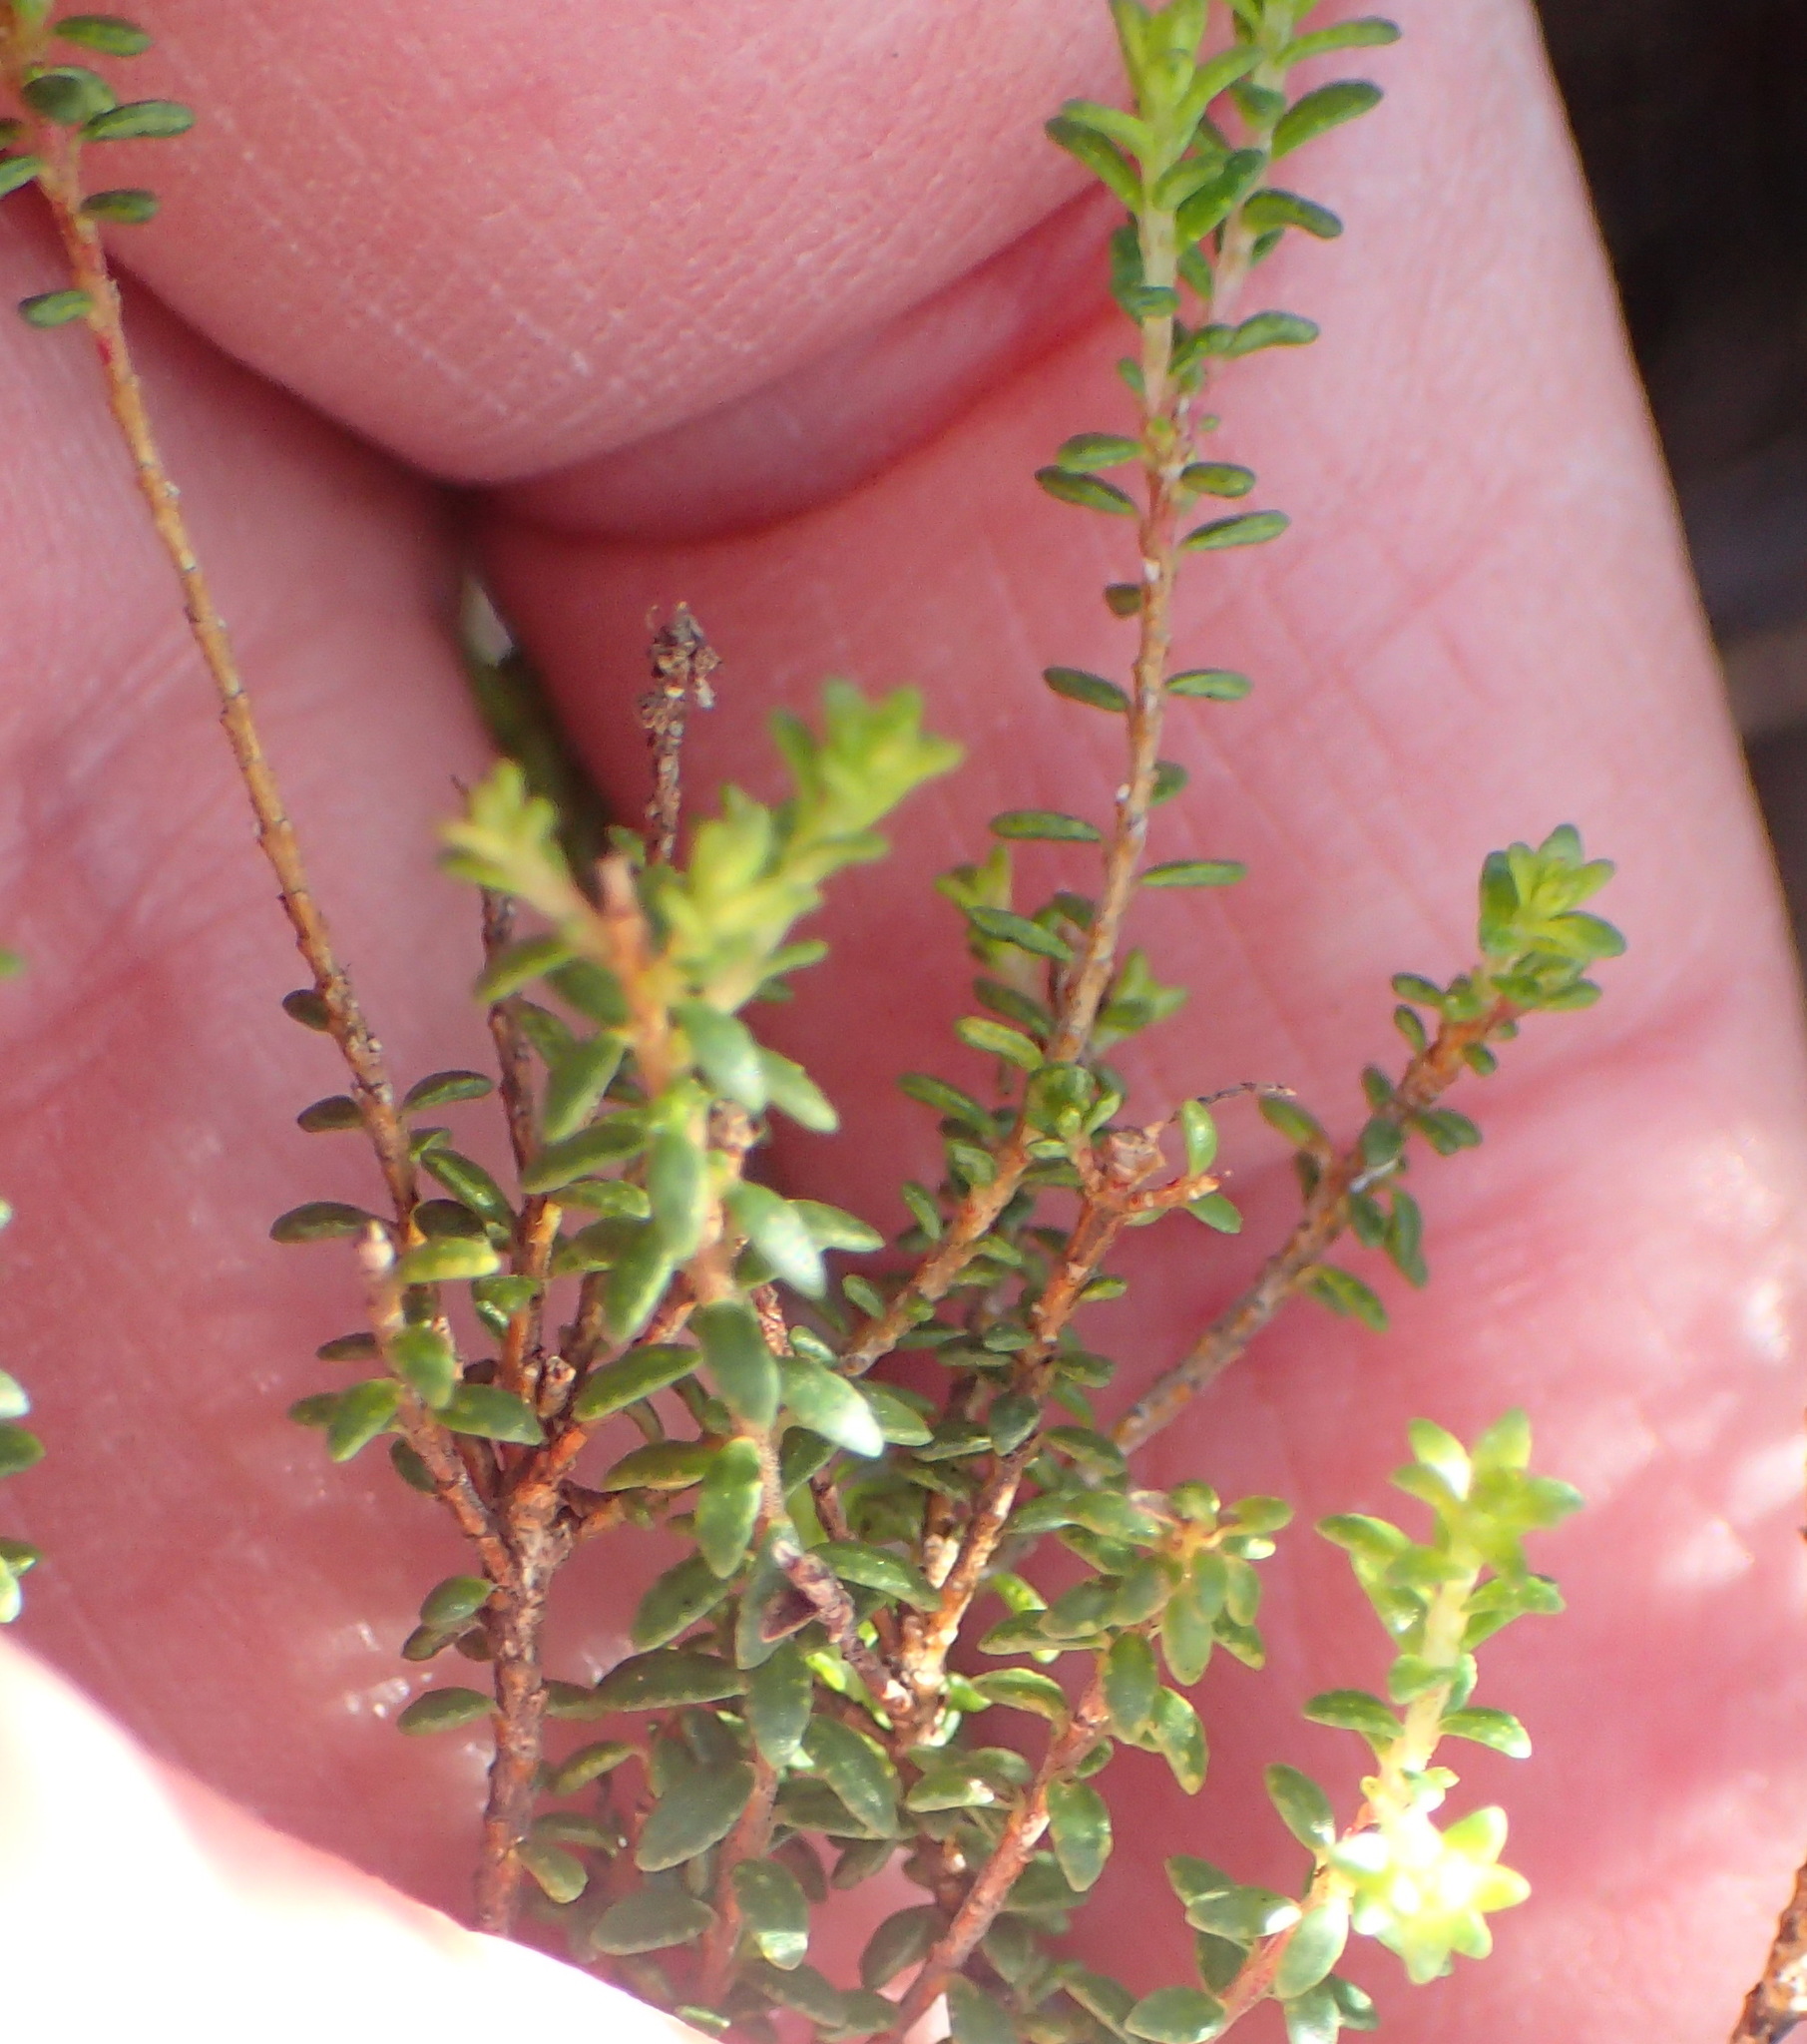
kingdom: Plantae
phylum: Tracheophyta
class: Magnoliopsida
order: Sapindales
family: Rutaceae
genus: Agathosma
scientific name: Agathosma capensis
